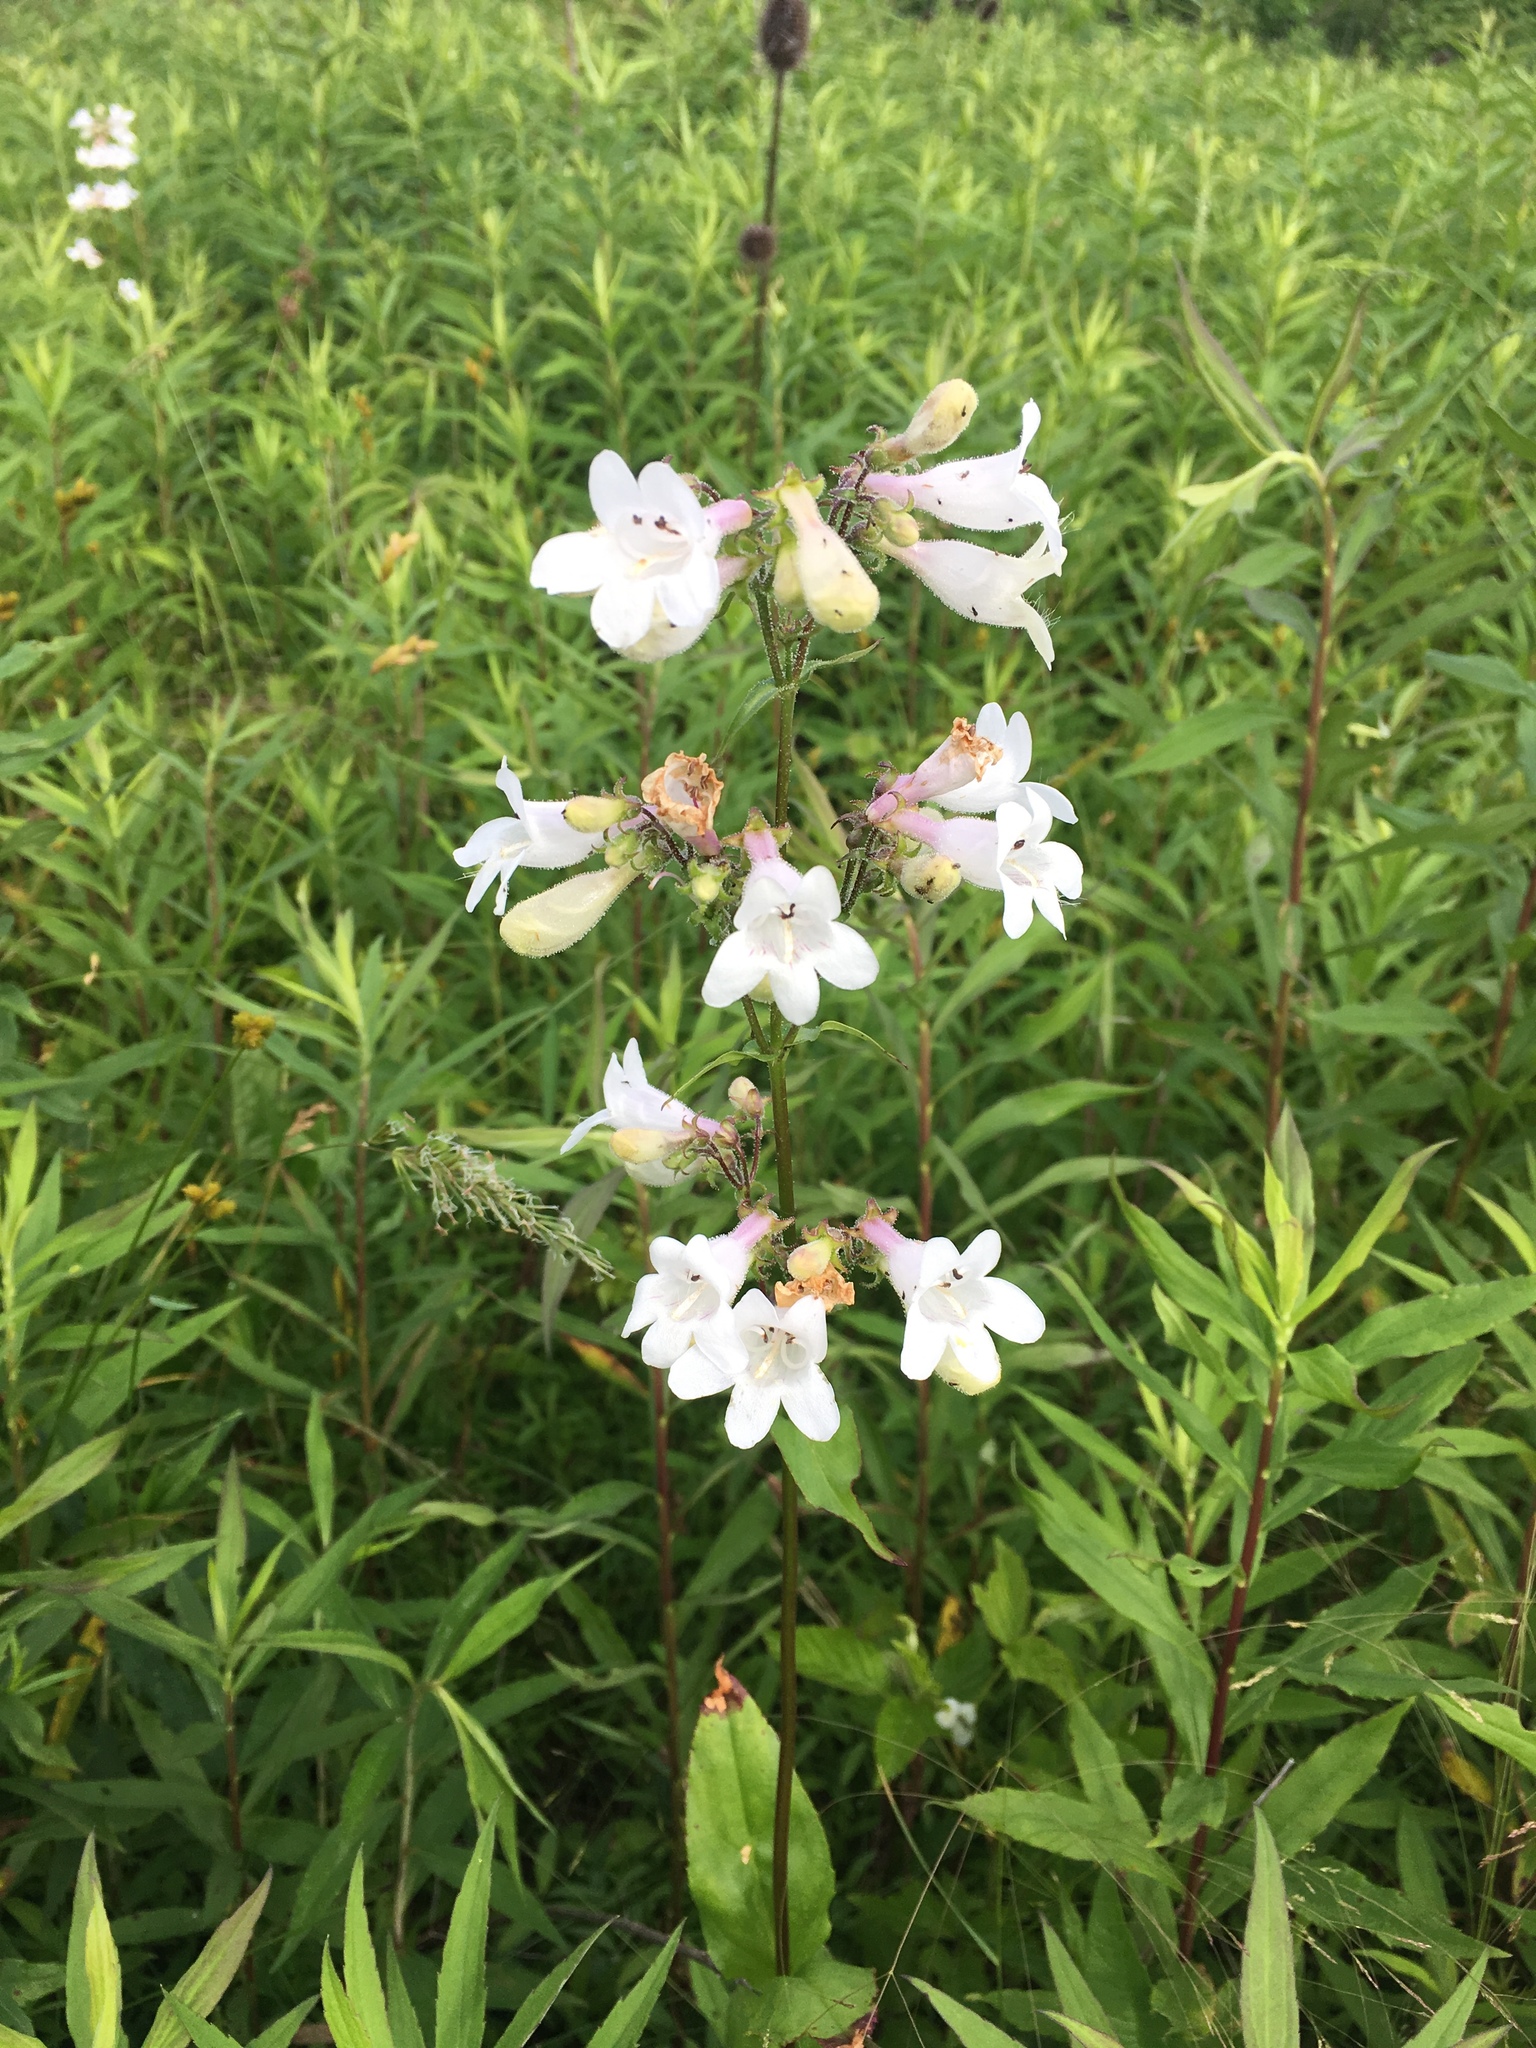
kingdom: Plantae
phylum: Tracheophyta
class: Magnoliopsida
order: Lamiales
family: Plantaginaceae
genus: Penstemon
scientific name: Penstemon digitalis
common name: Foxglove beardtongue
